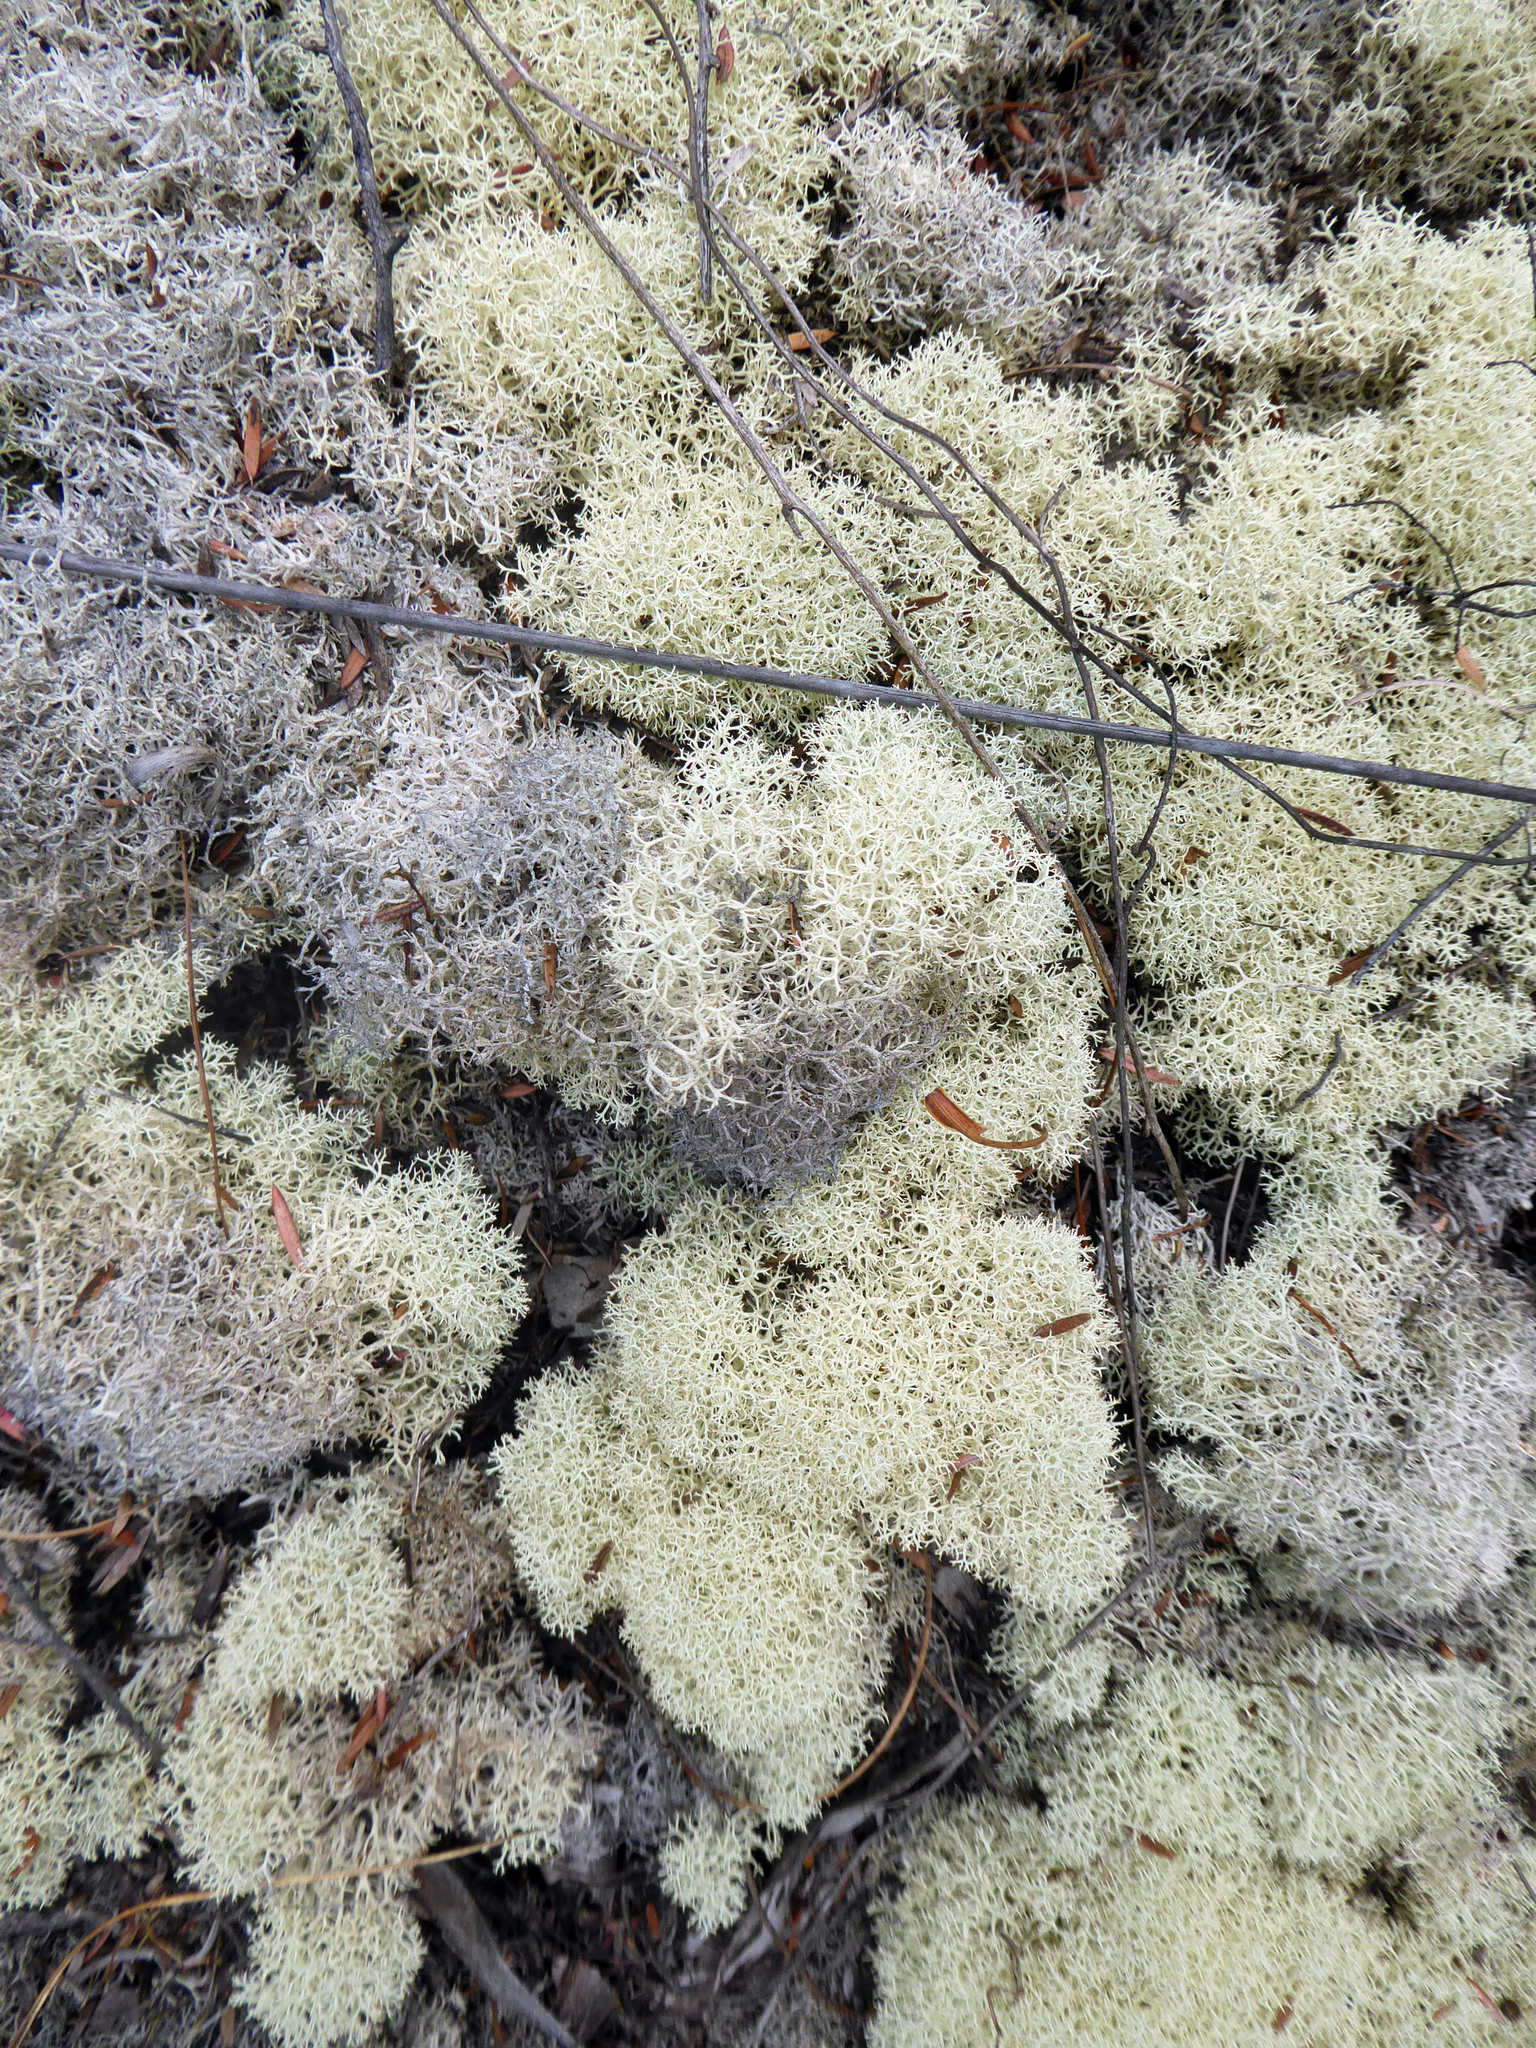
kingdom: Fungi
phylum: Ascomycota
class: Lecanoromycetes
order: Lecanorales
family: Cladoniaceae
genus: Cladonia
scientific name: Cladonia confusa
